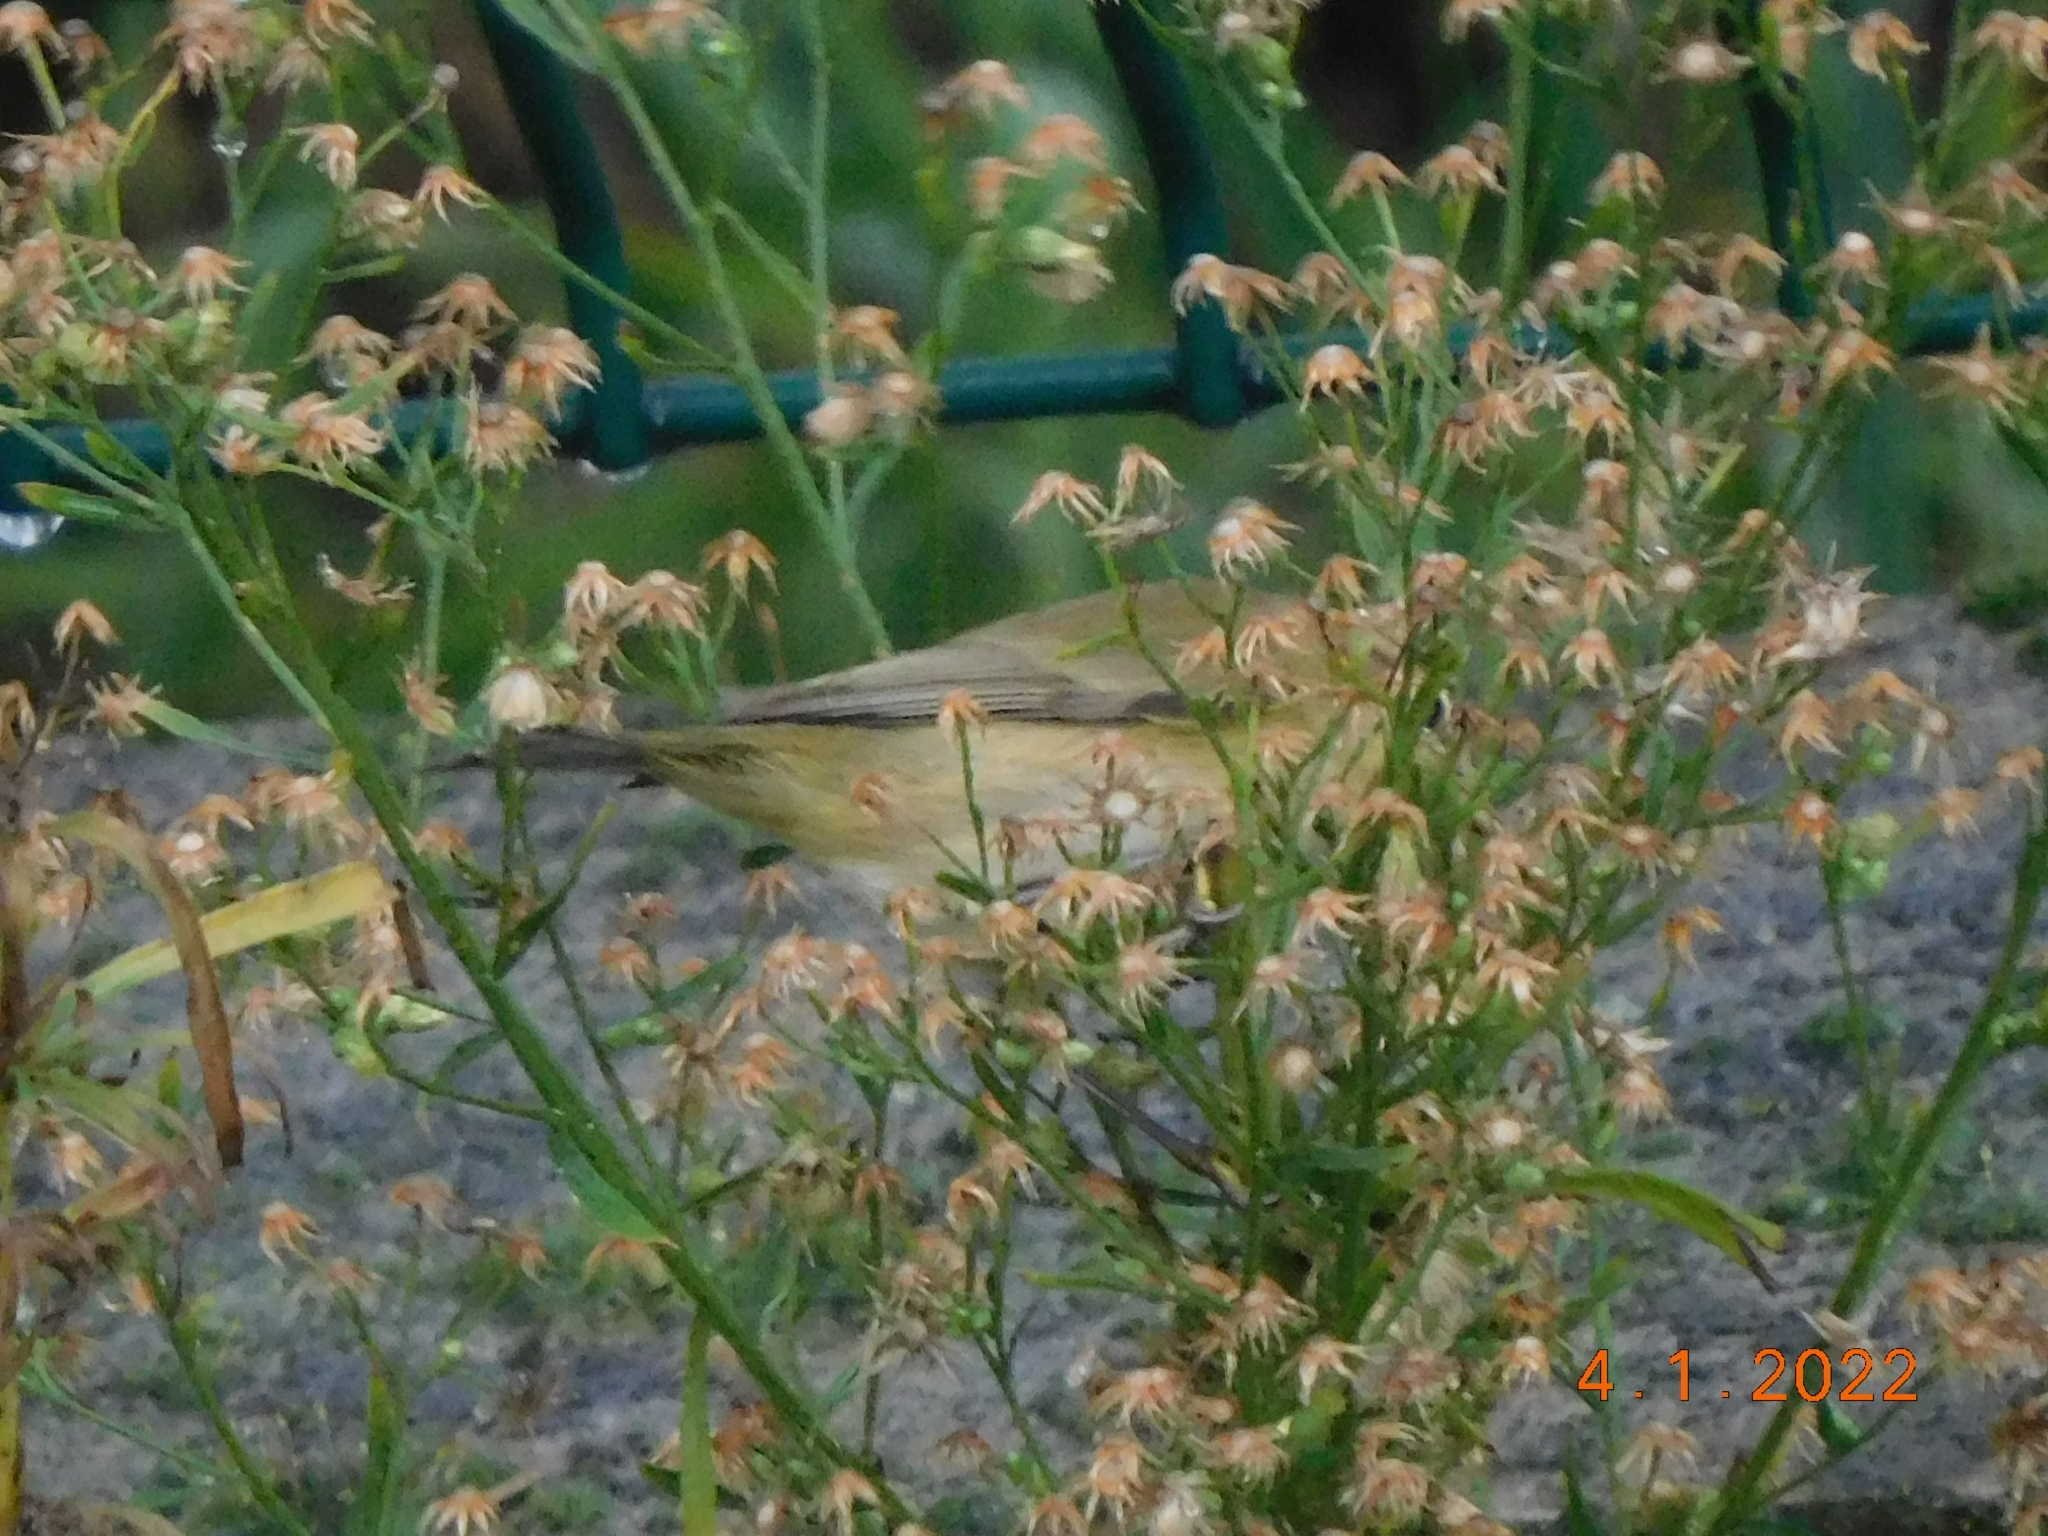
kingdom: Animalia
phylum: Chordata
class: Aves
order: Passeriformes
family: Phylloscopidae
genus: Phylloscopus
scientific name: Phylloscopus collybita
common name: Common chiffchaff
